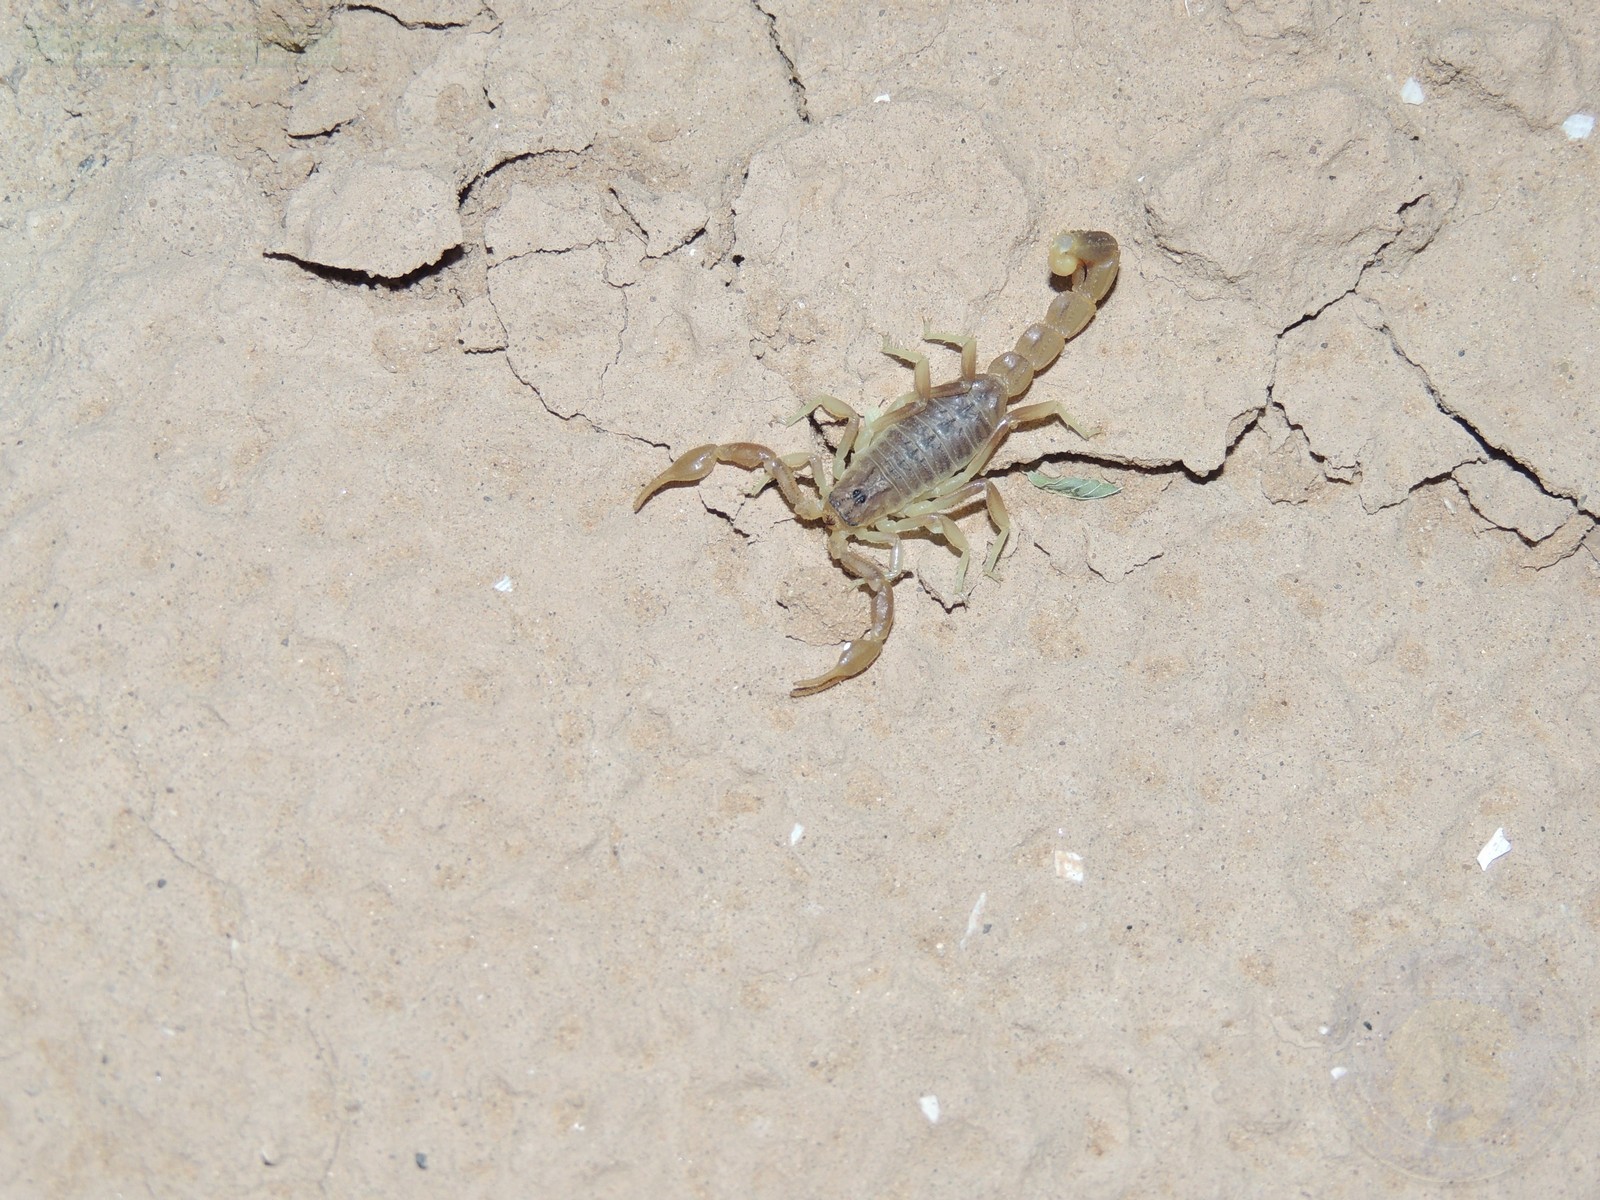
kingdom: Animalia
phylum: Arthropoda
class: Arachnida
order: Scorpiones
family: Buthidae
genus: Mesobuthus
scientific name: Mesobuthus bogdoensis
